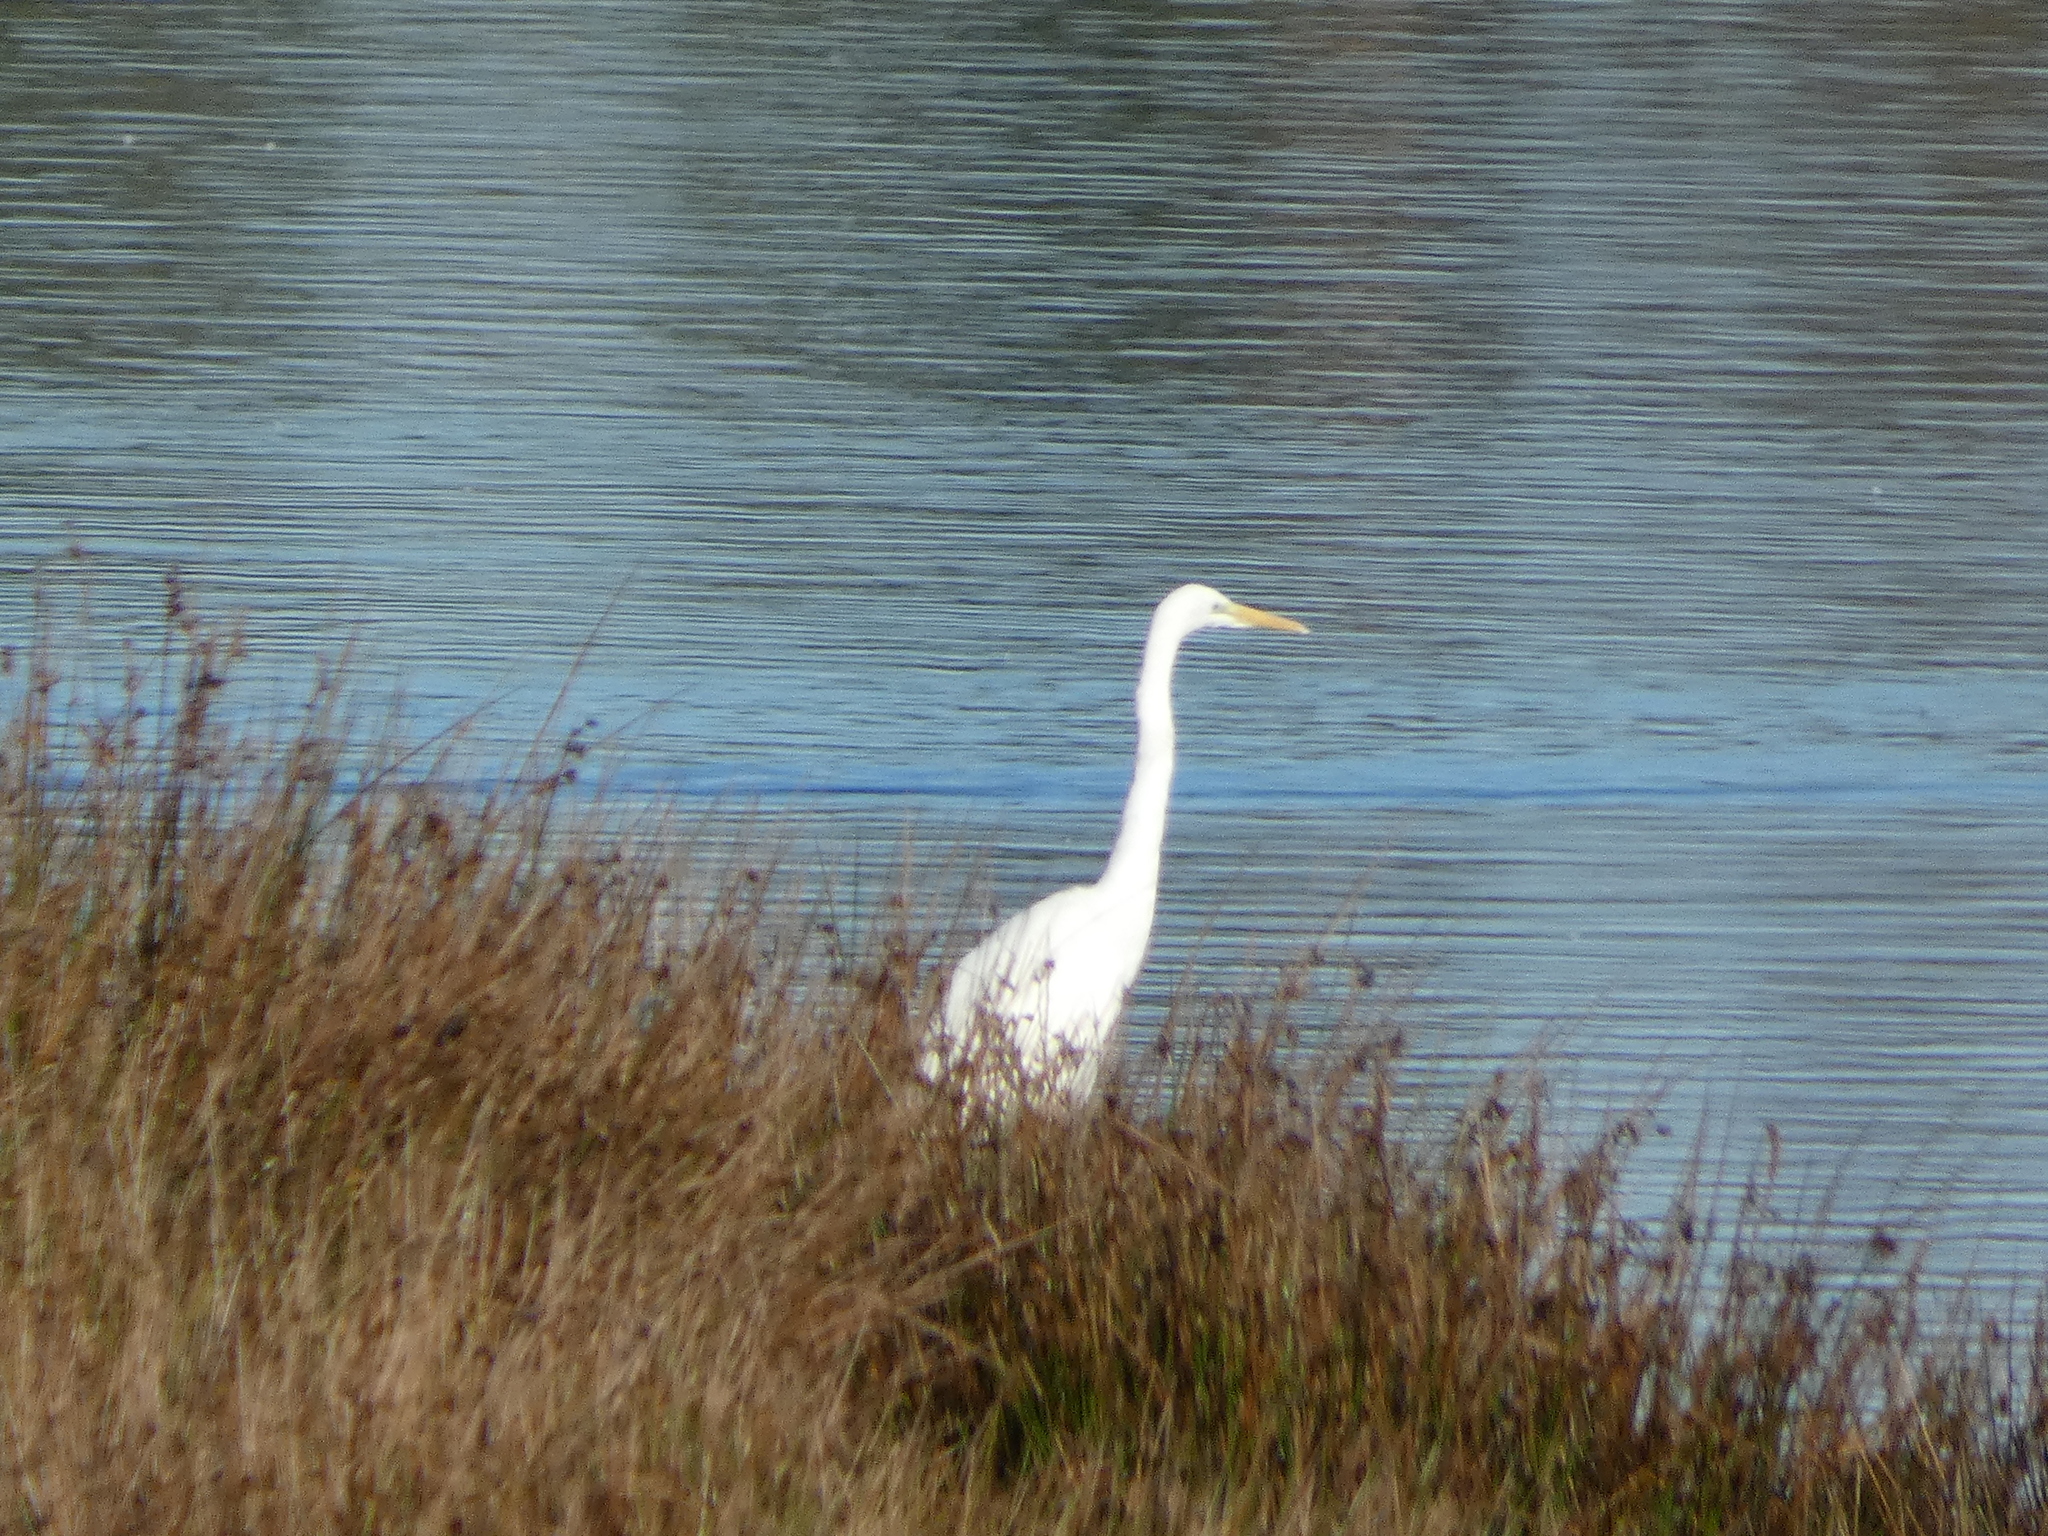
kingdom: Animalia
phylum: Chordata
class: Aves
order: Pelecaniformes
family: Ardeidae
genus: Ardea
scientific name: Ardea alba
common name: Great egret
